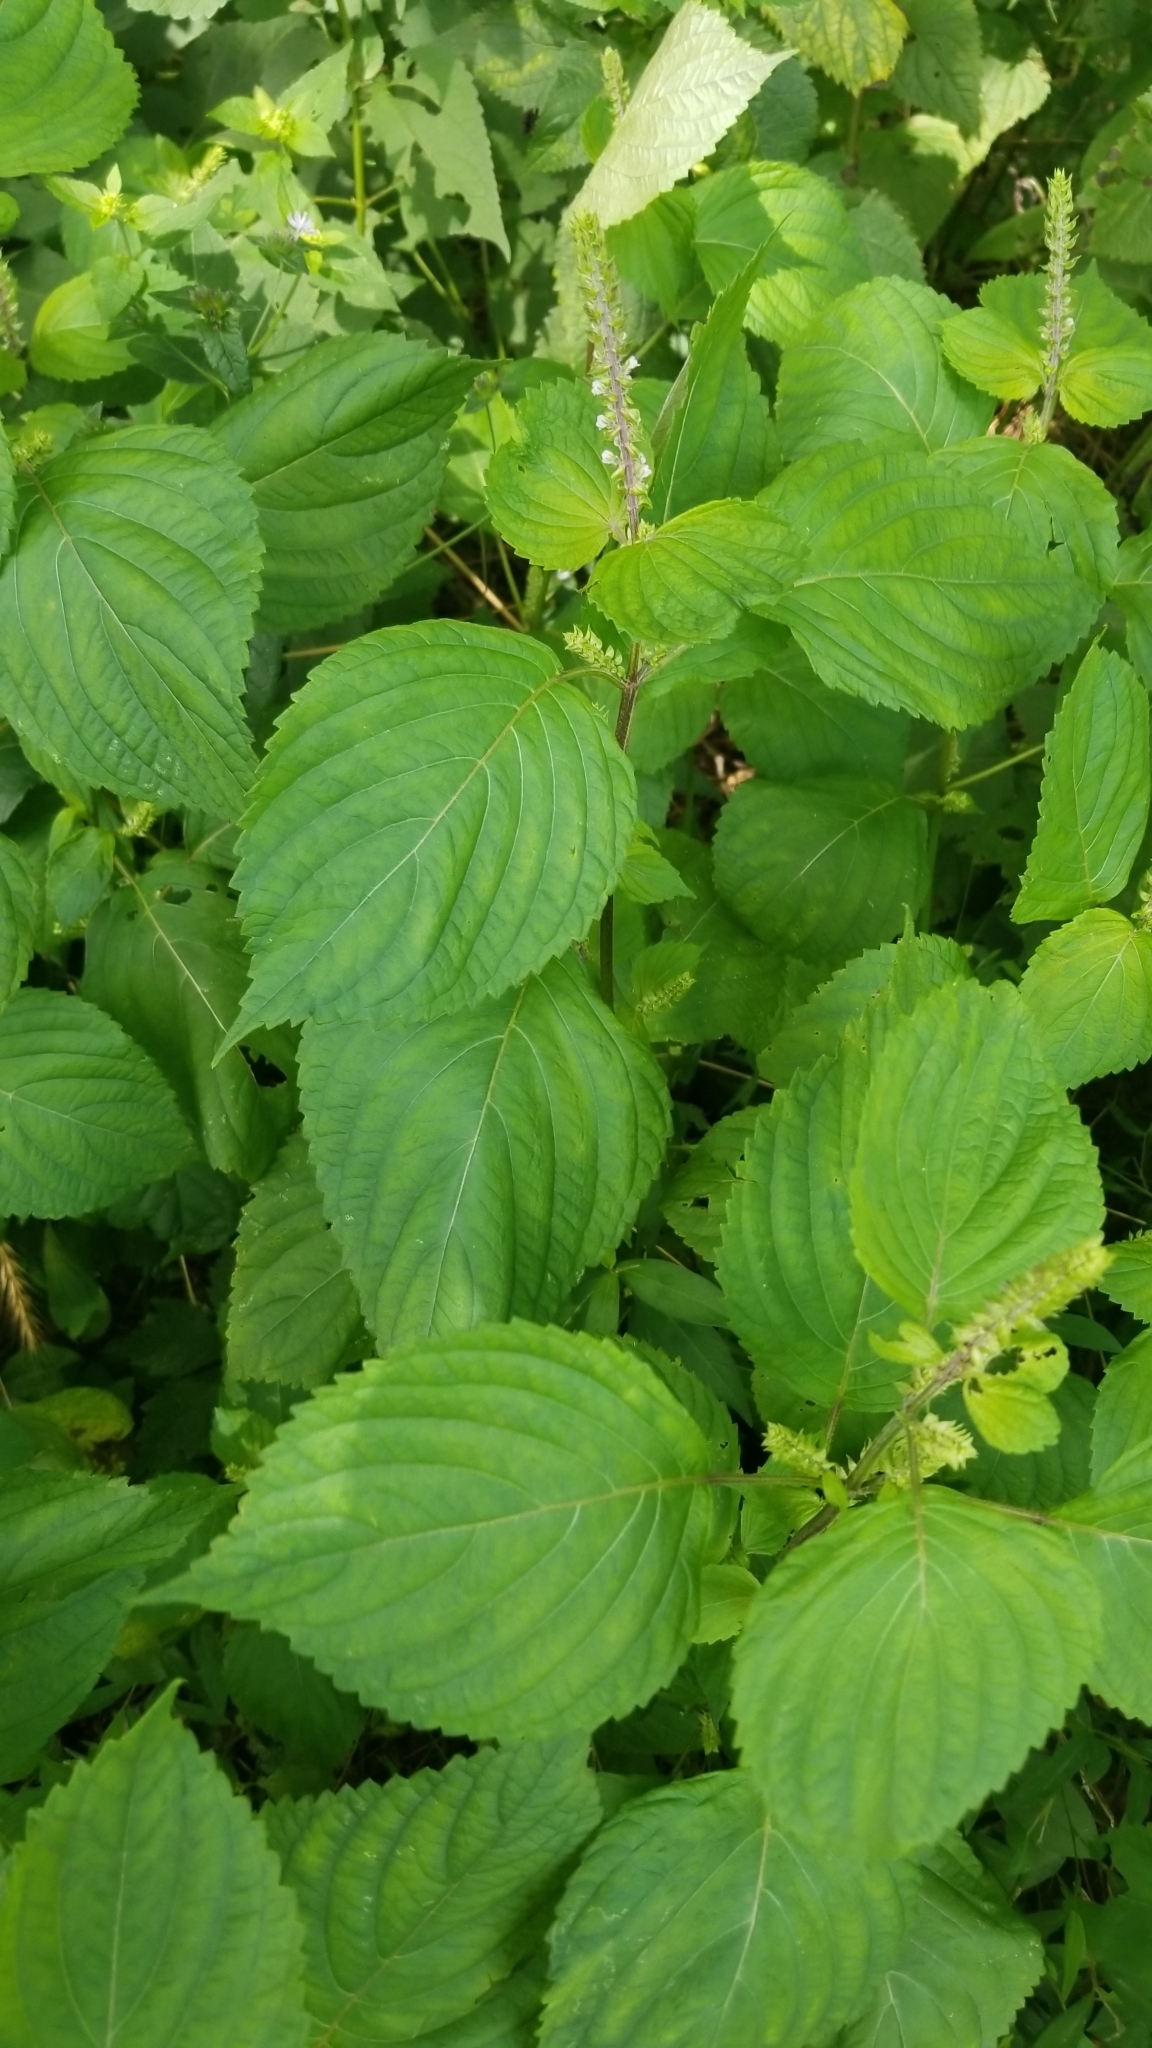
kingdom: Plantae
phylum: Tracheophyta
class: Magnoliopsida
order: Lamiales
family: Lamiaceae
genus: Perilla
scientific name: Perilla frutescens
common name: Perilla
